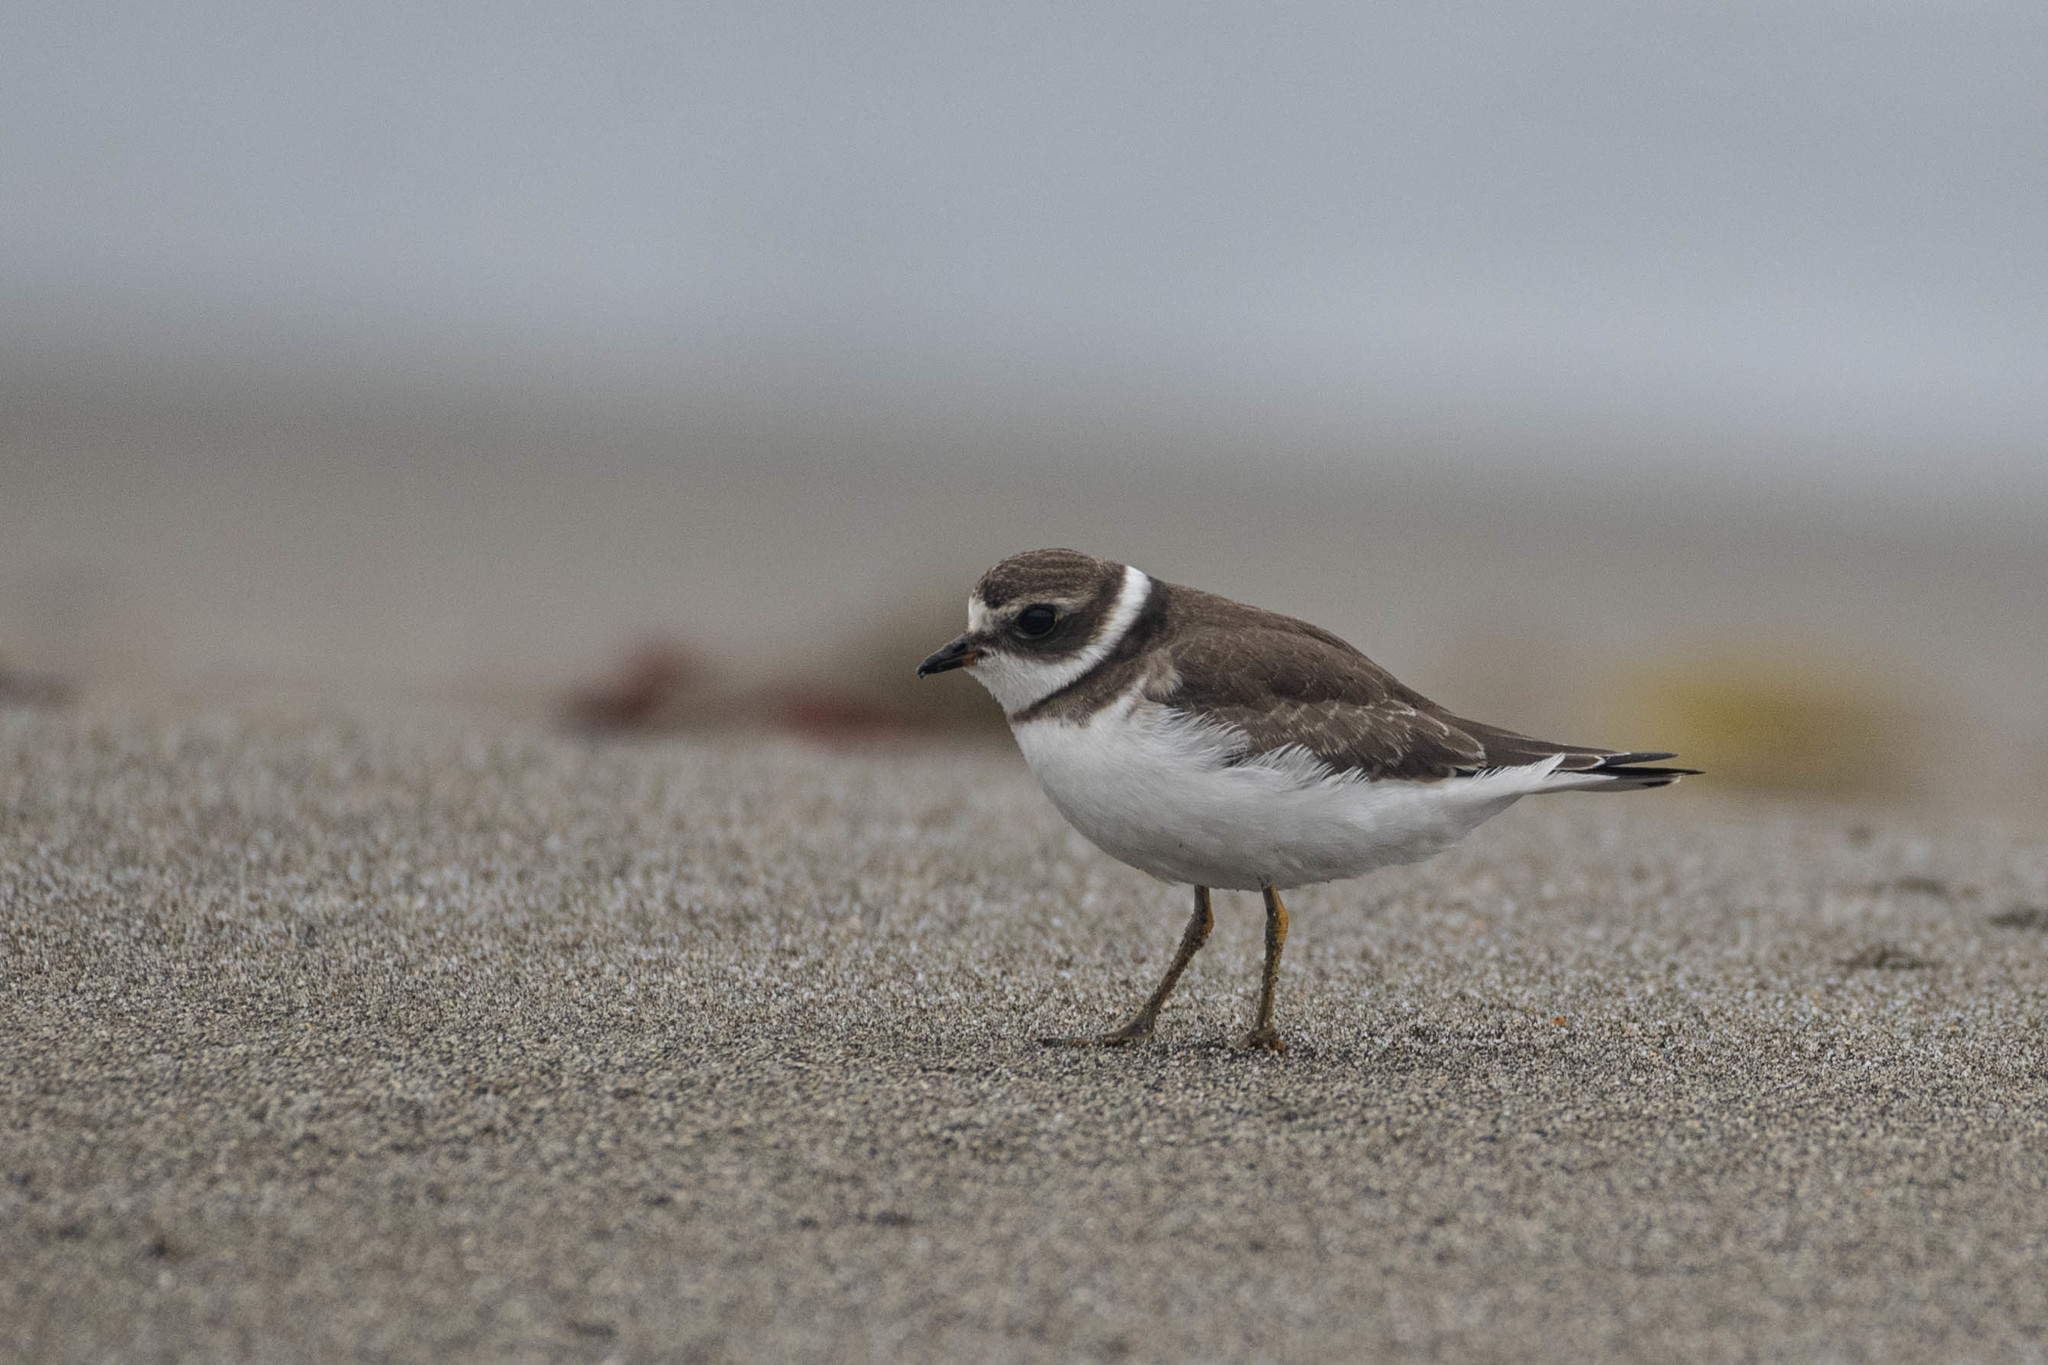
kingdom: Animalia
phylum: Chordata
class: Aves
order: Charadriiformes
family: Charadriidae
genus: Charadrius
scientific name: Charadrius semipalmatus
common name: Semipalmated plover
